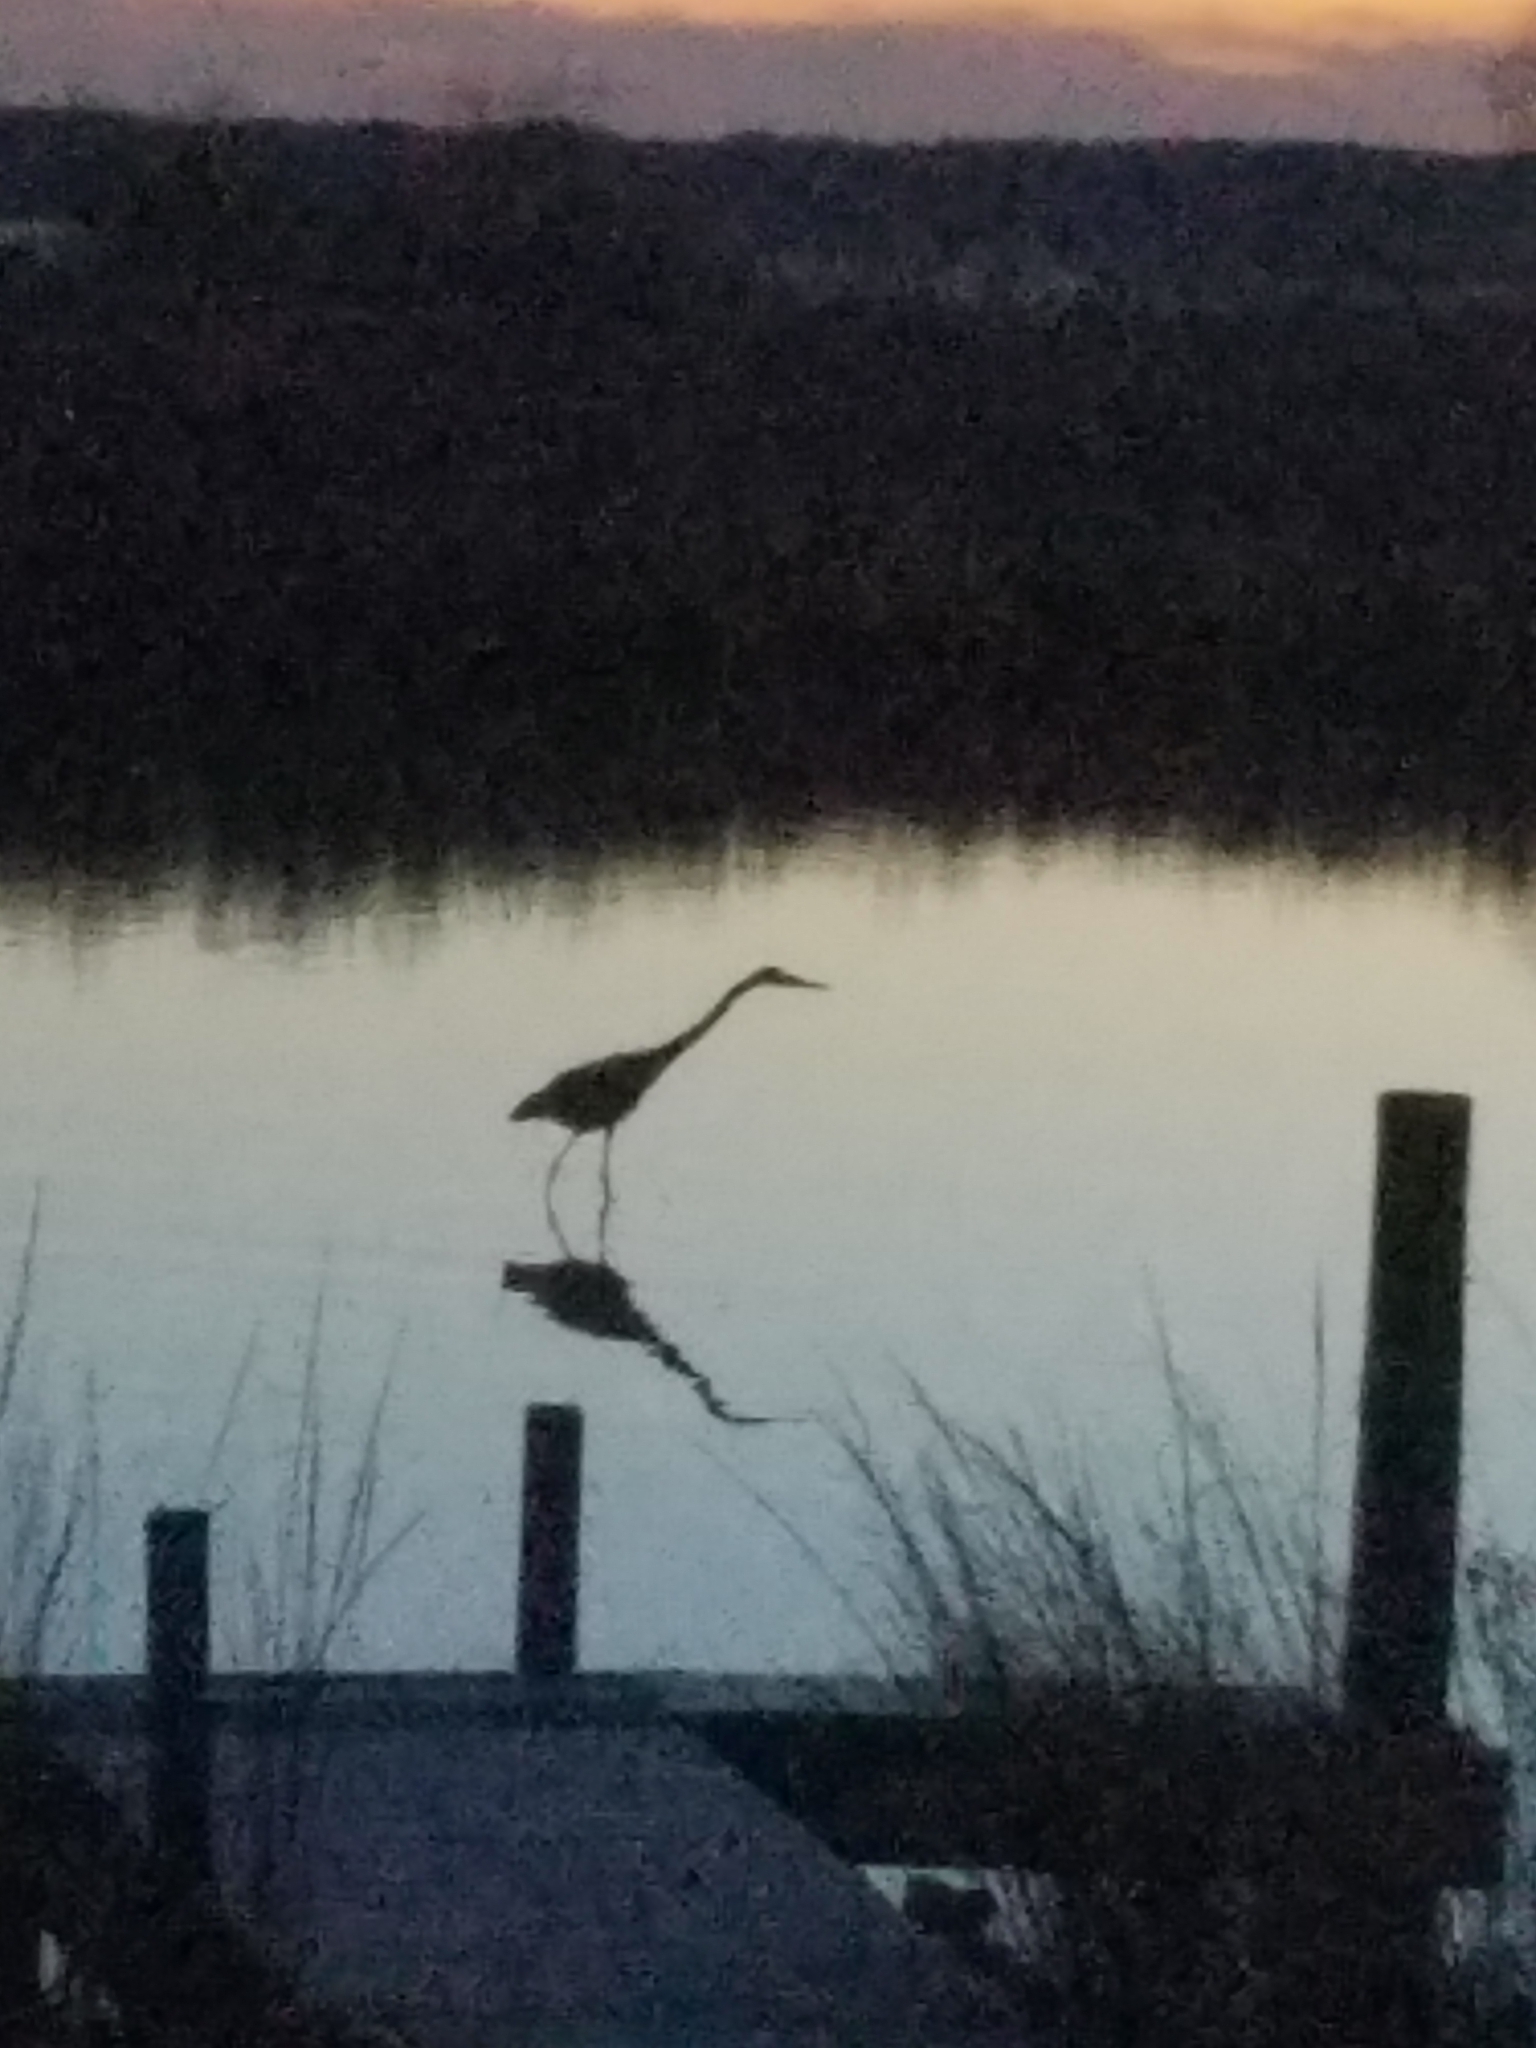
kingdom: Animalia
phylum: Chordata
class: Aves
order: Pelecaniformes
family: Ardeidae
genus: Ardea
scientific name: Ardea herodias
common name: Great blue heron
